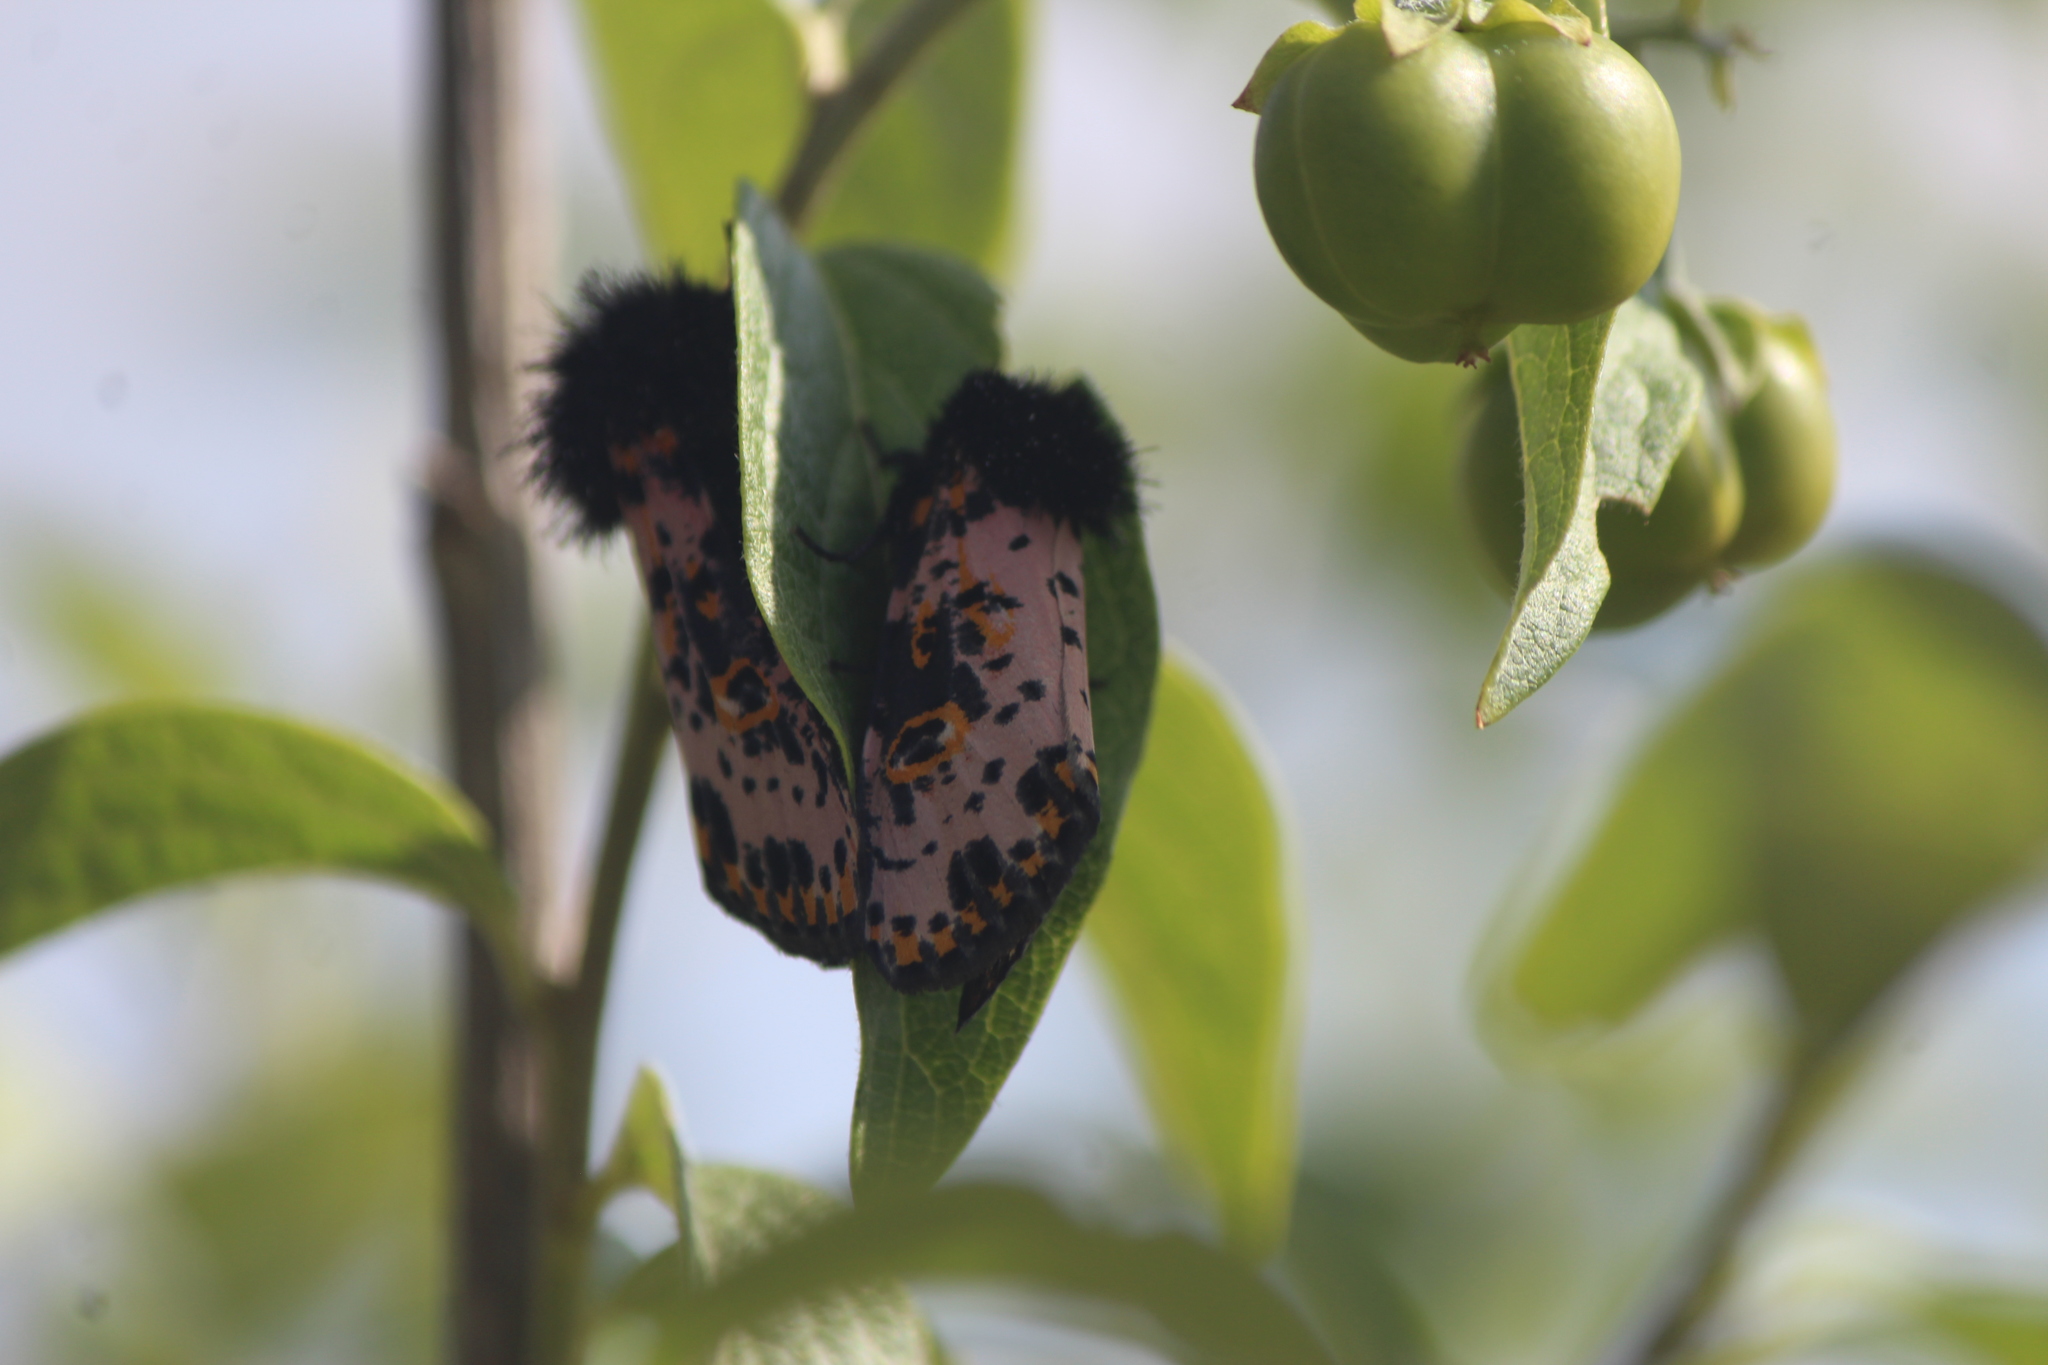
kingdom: Animalia
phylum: Arthropoda
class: Insecta
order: Lepidoptera
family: Noctuidae
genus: Xanthopastis
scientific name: Xanthopastis moctezuma
